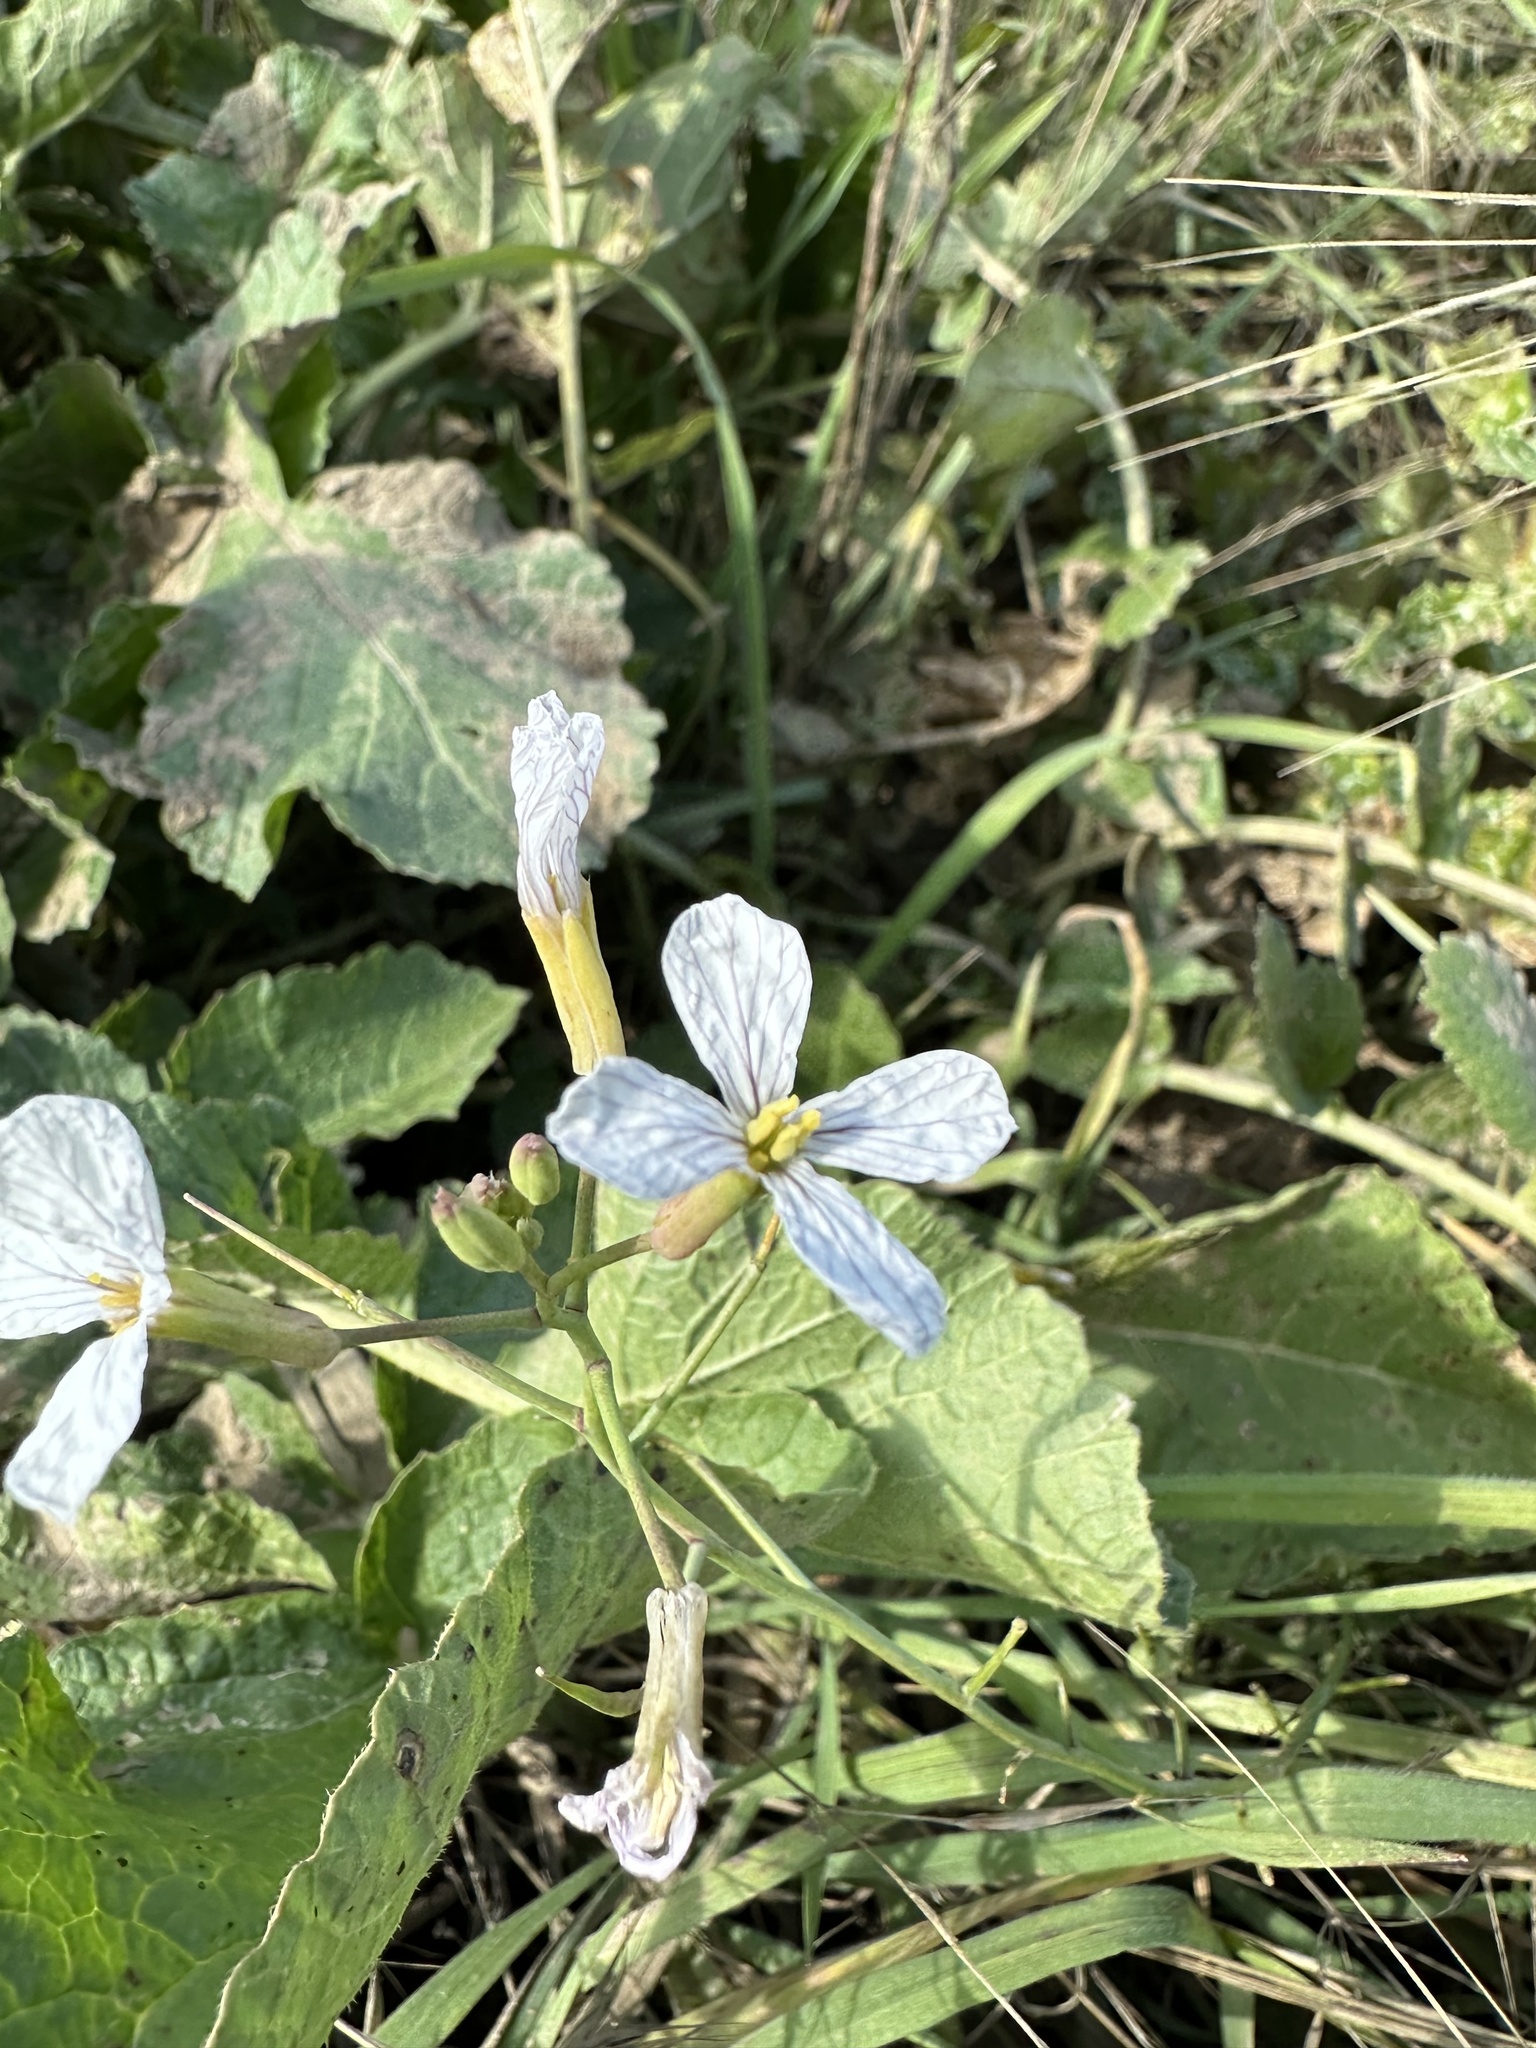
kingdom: Plantae
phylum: Tracheophyta
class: Magnoliopsida
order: Brassicales
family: Brassicaceae
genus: Raphanus
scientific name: Raphanus sativus
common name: Cultivated radish
